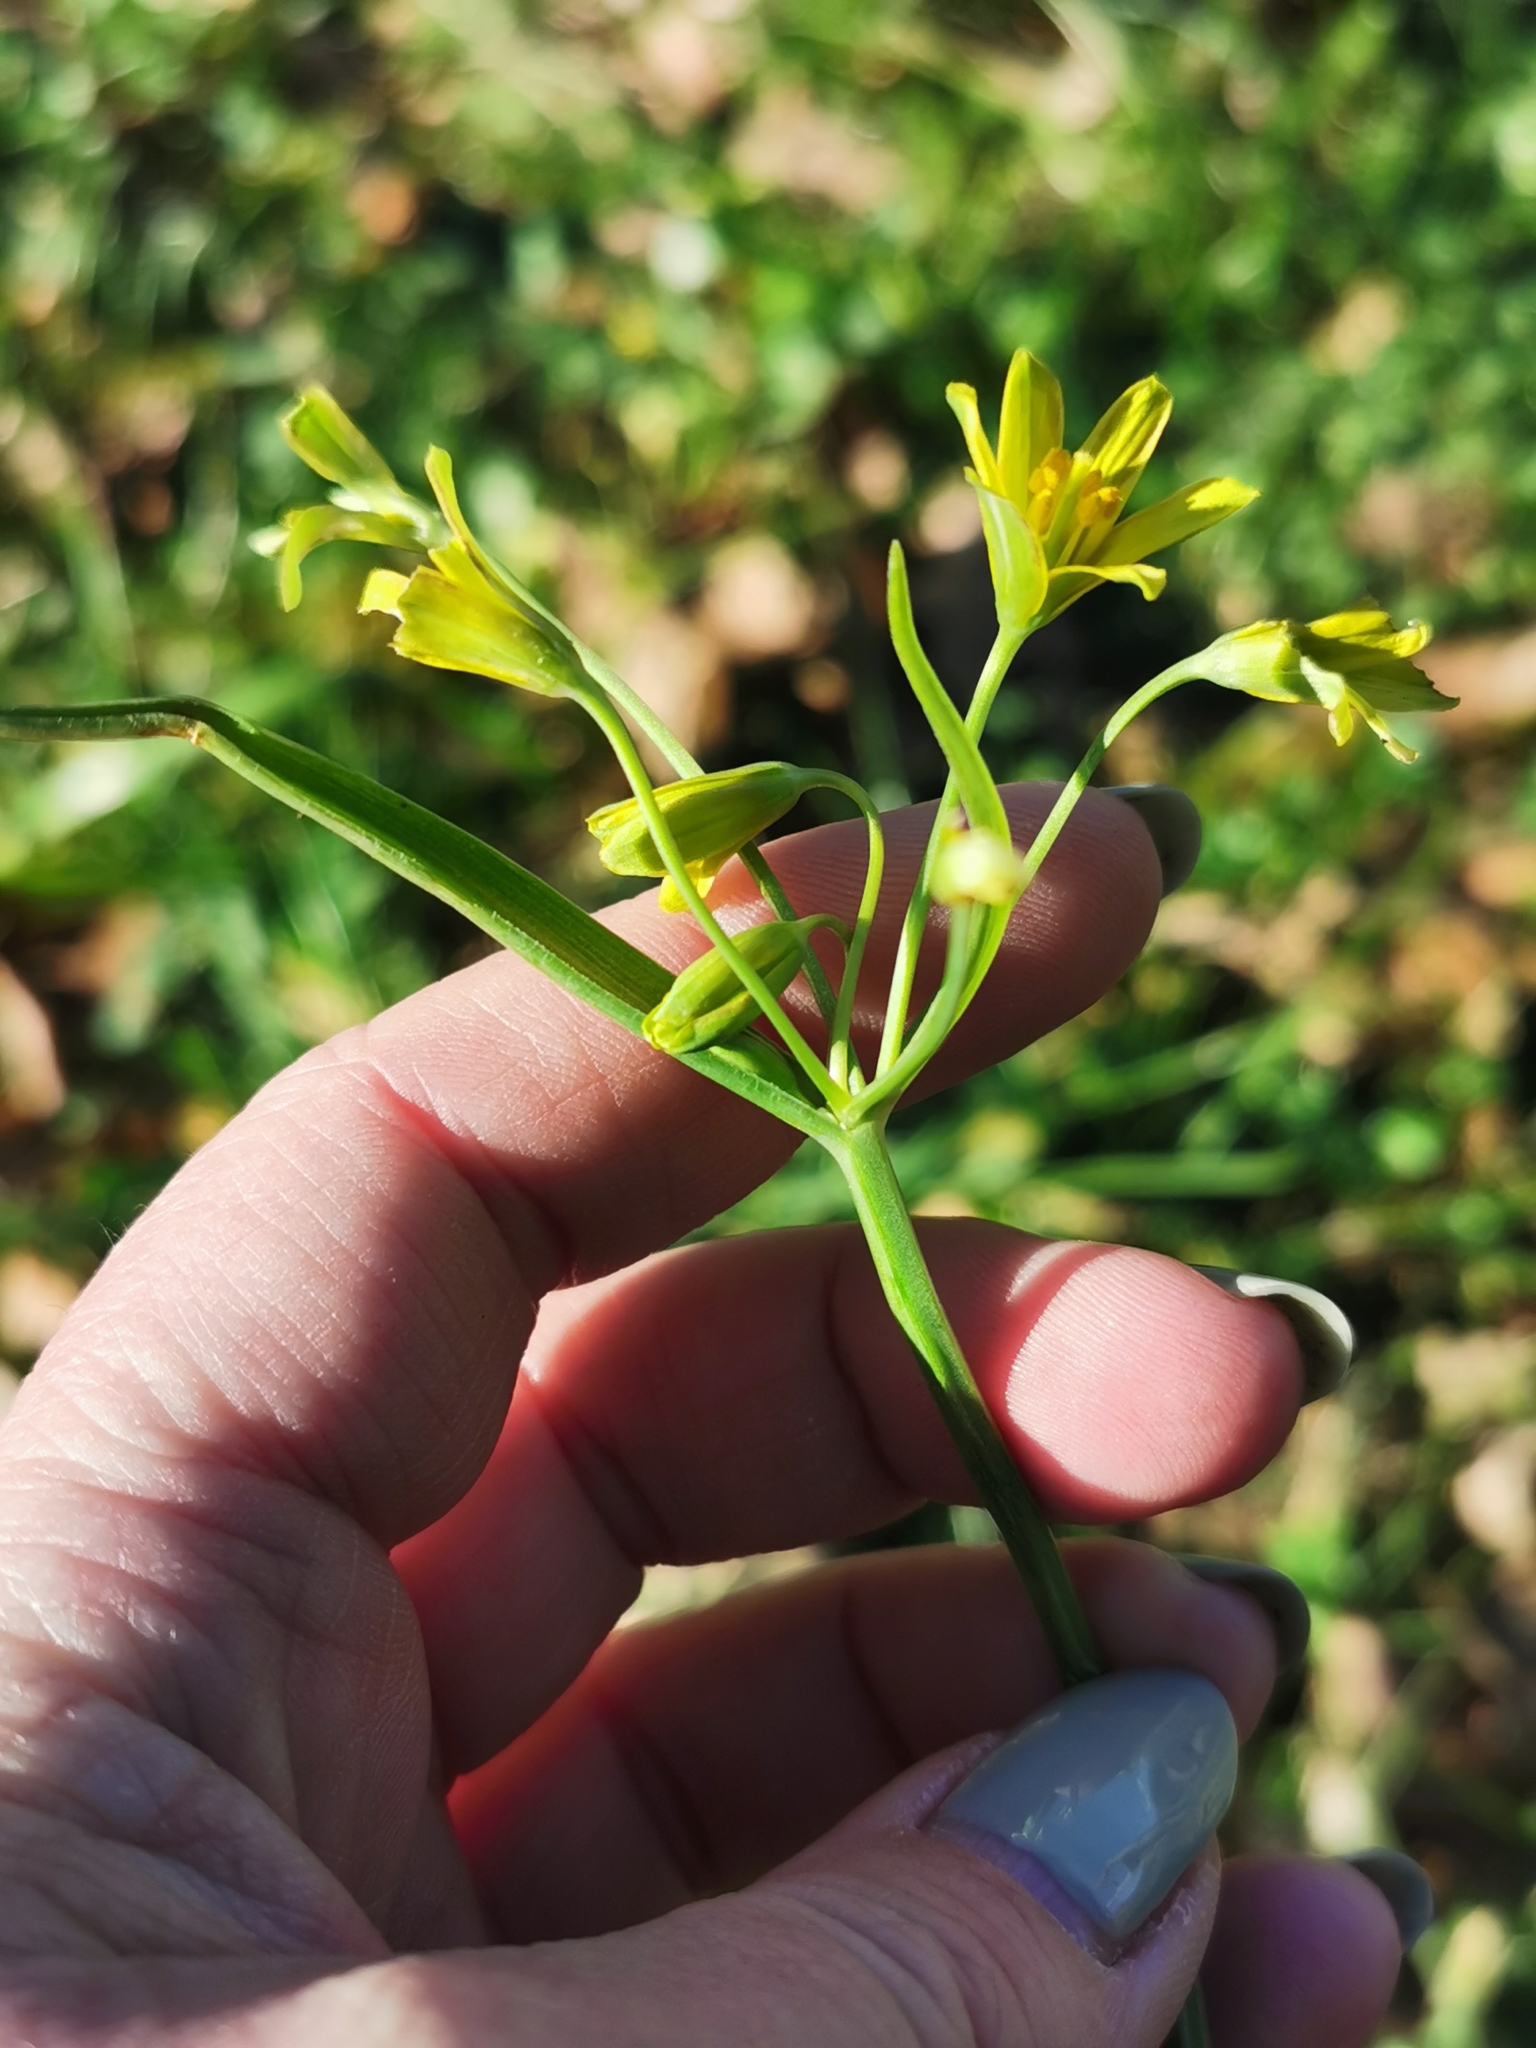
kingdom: Plantae
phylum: Tracheophyta
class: Liliopsida
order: Liliales
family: Liliaceae
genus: Gagea
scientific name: Gagea lutea
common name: Yellow star-of-bethlehem
